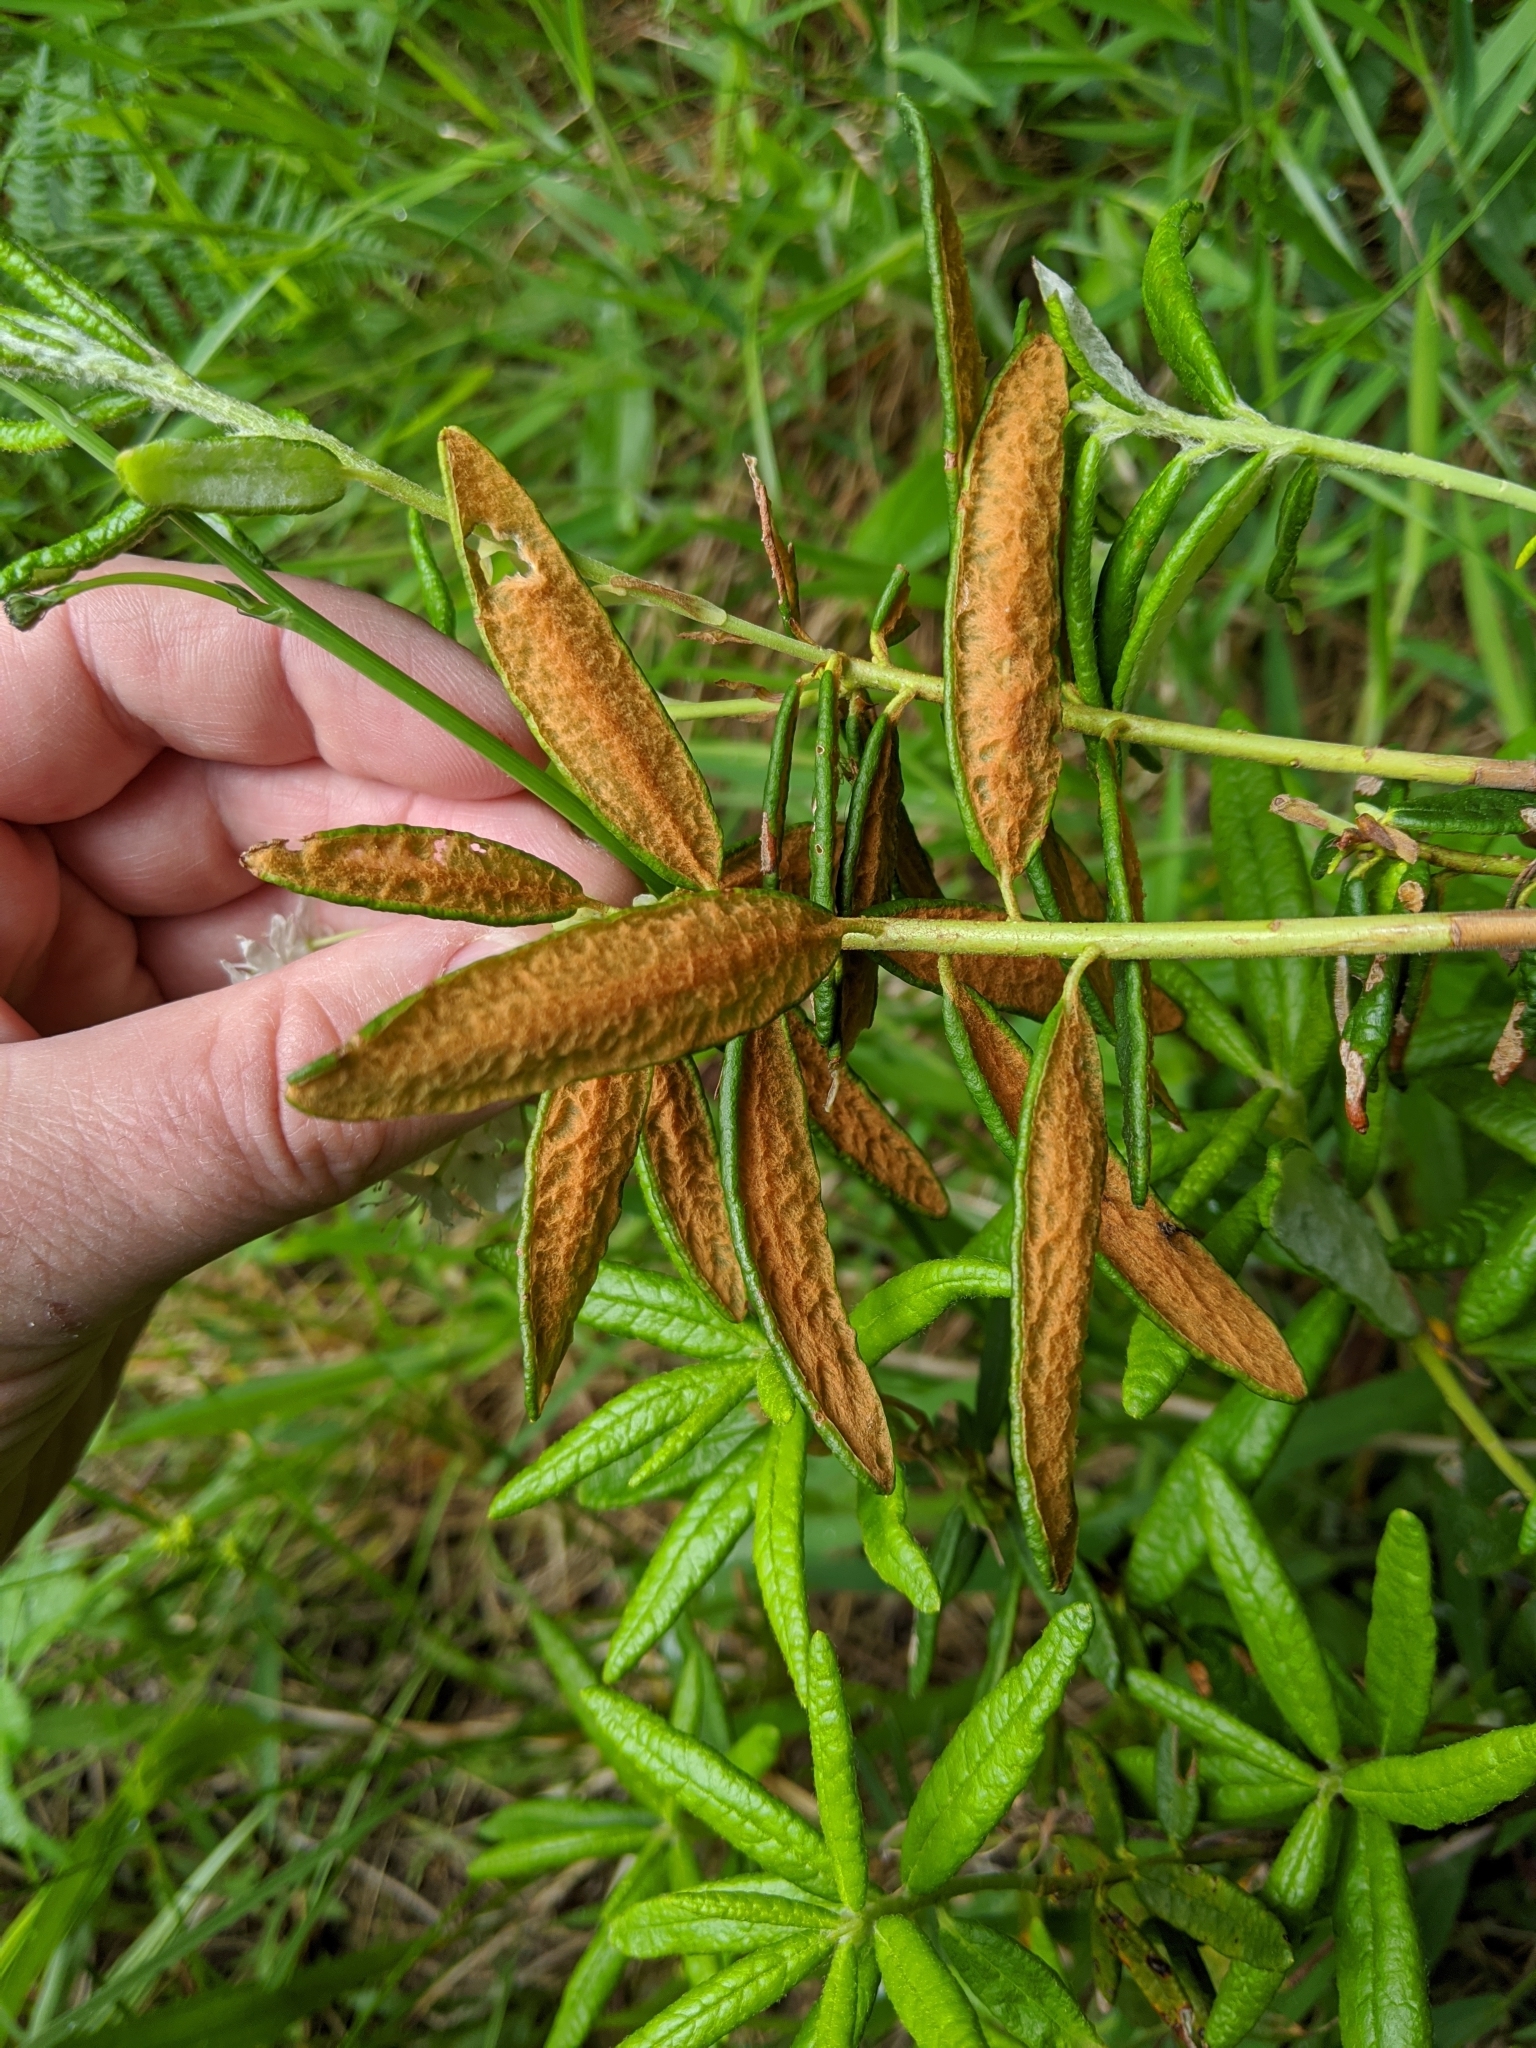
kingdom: Plantae
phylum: Tracheophyta
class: Magnoliopsida
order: Ericales
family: Ericaceae
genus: Rhododendron
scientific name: Rhododendron groenlandicum
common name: Bog labrador tea
